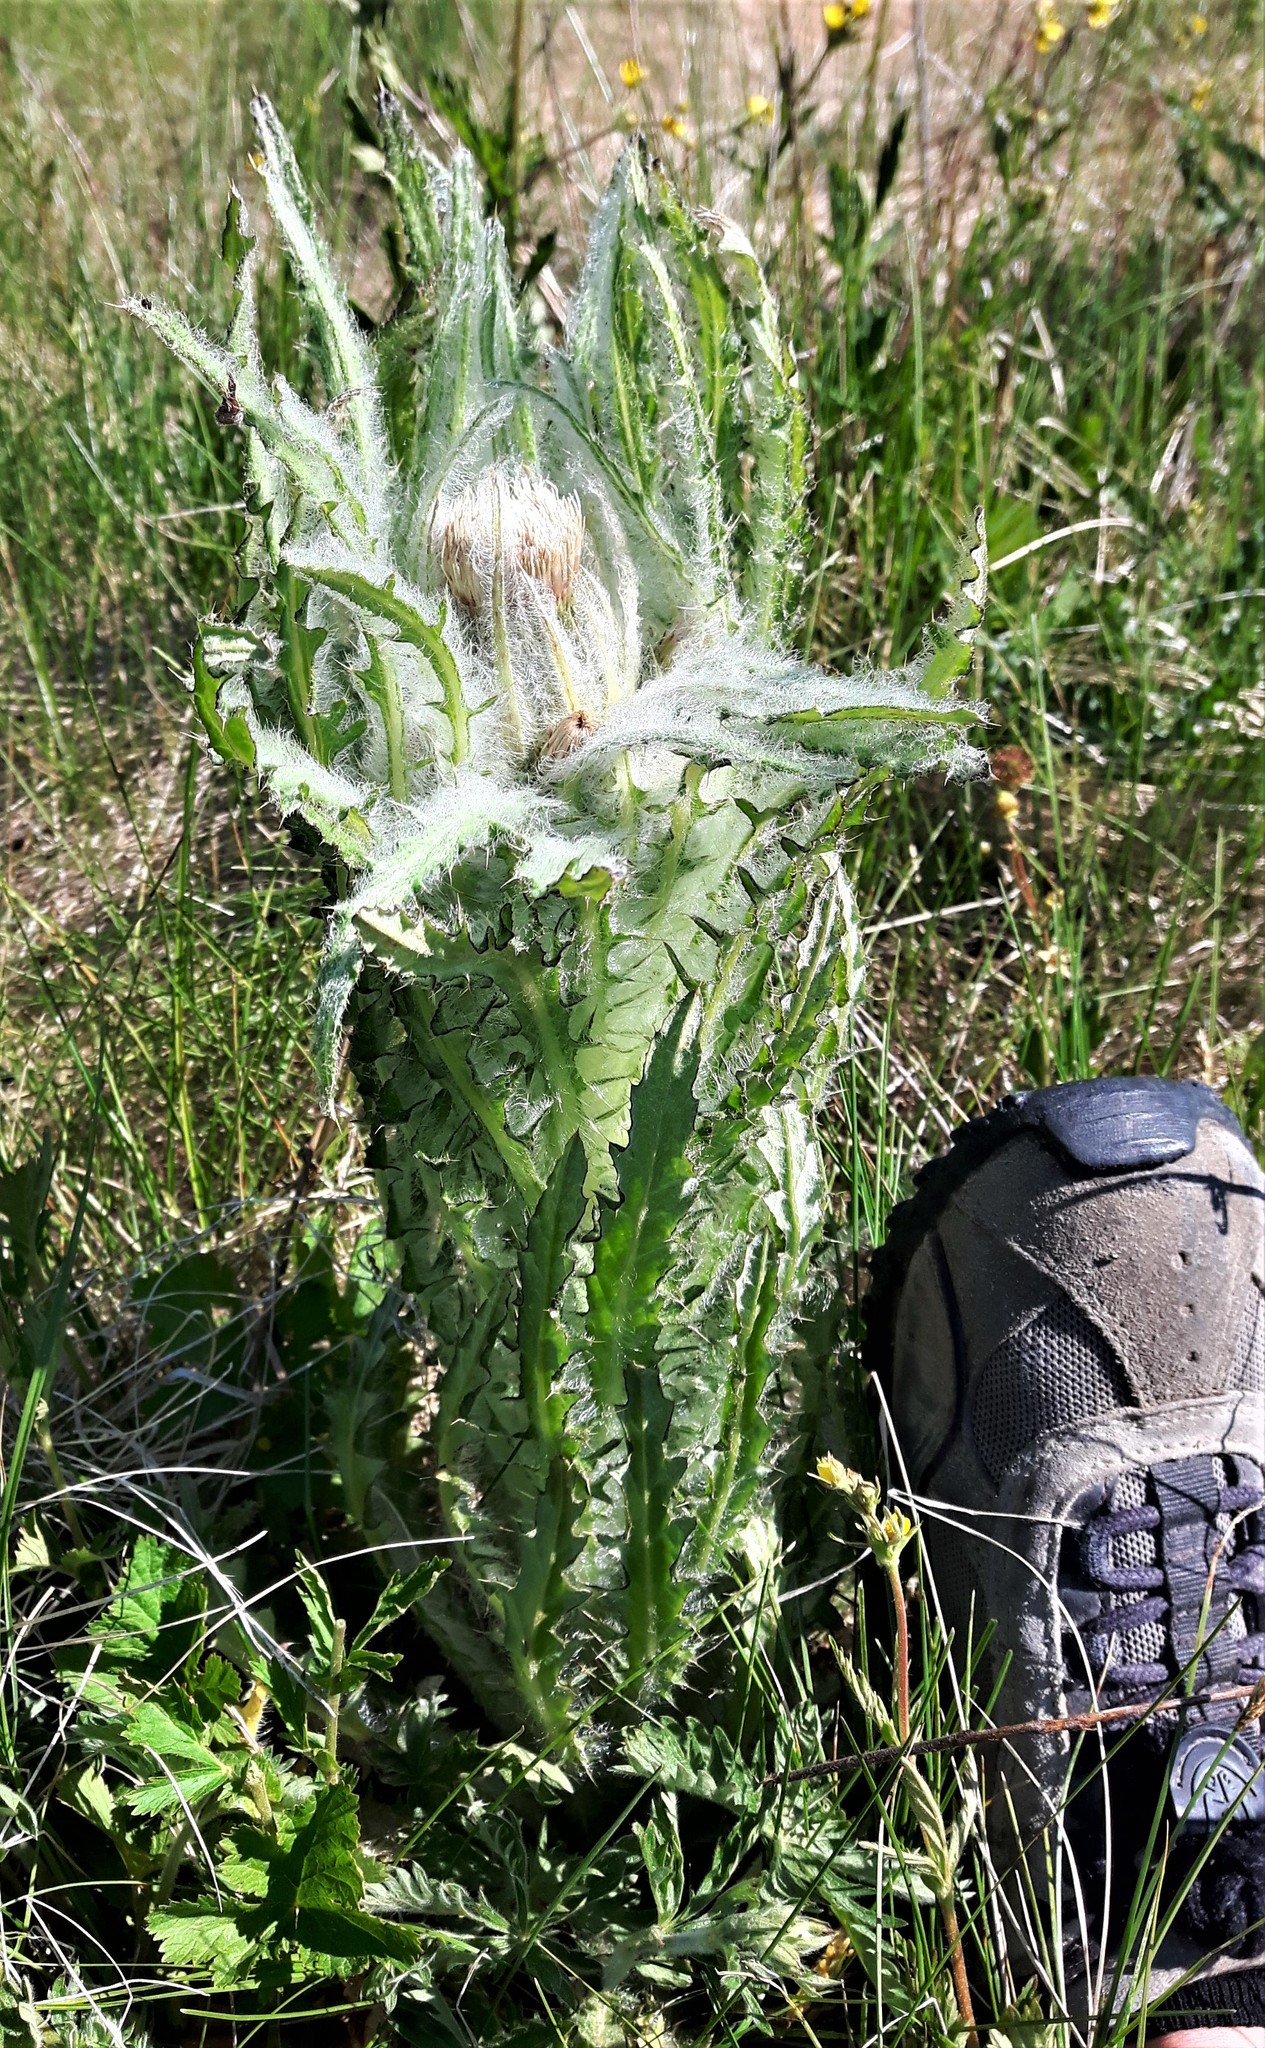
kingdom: Plantae
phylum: Tracheophyta
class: Magnoliopsida
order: Asterales
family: Asteraceae
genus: Cirsium
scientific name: Cirsium foliosum
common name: Elk thistle
